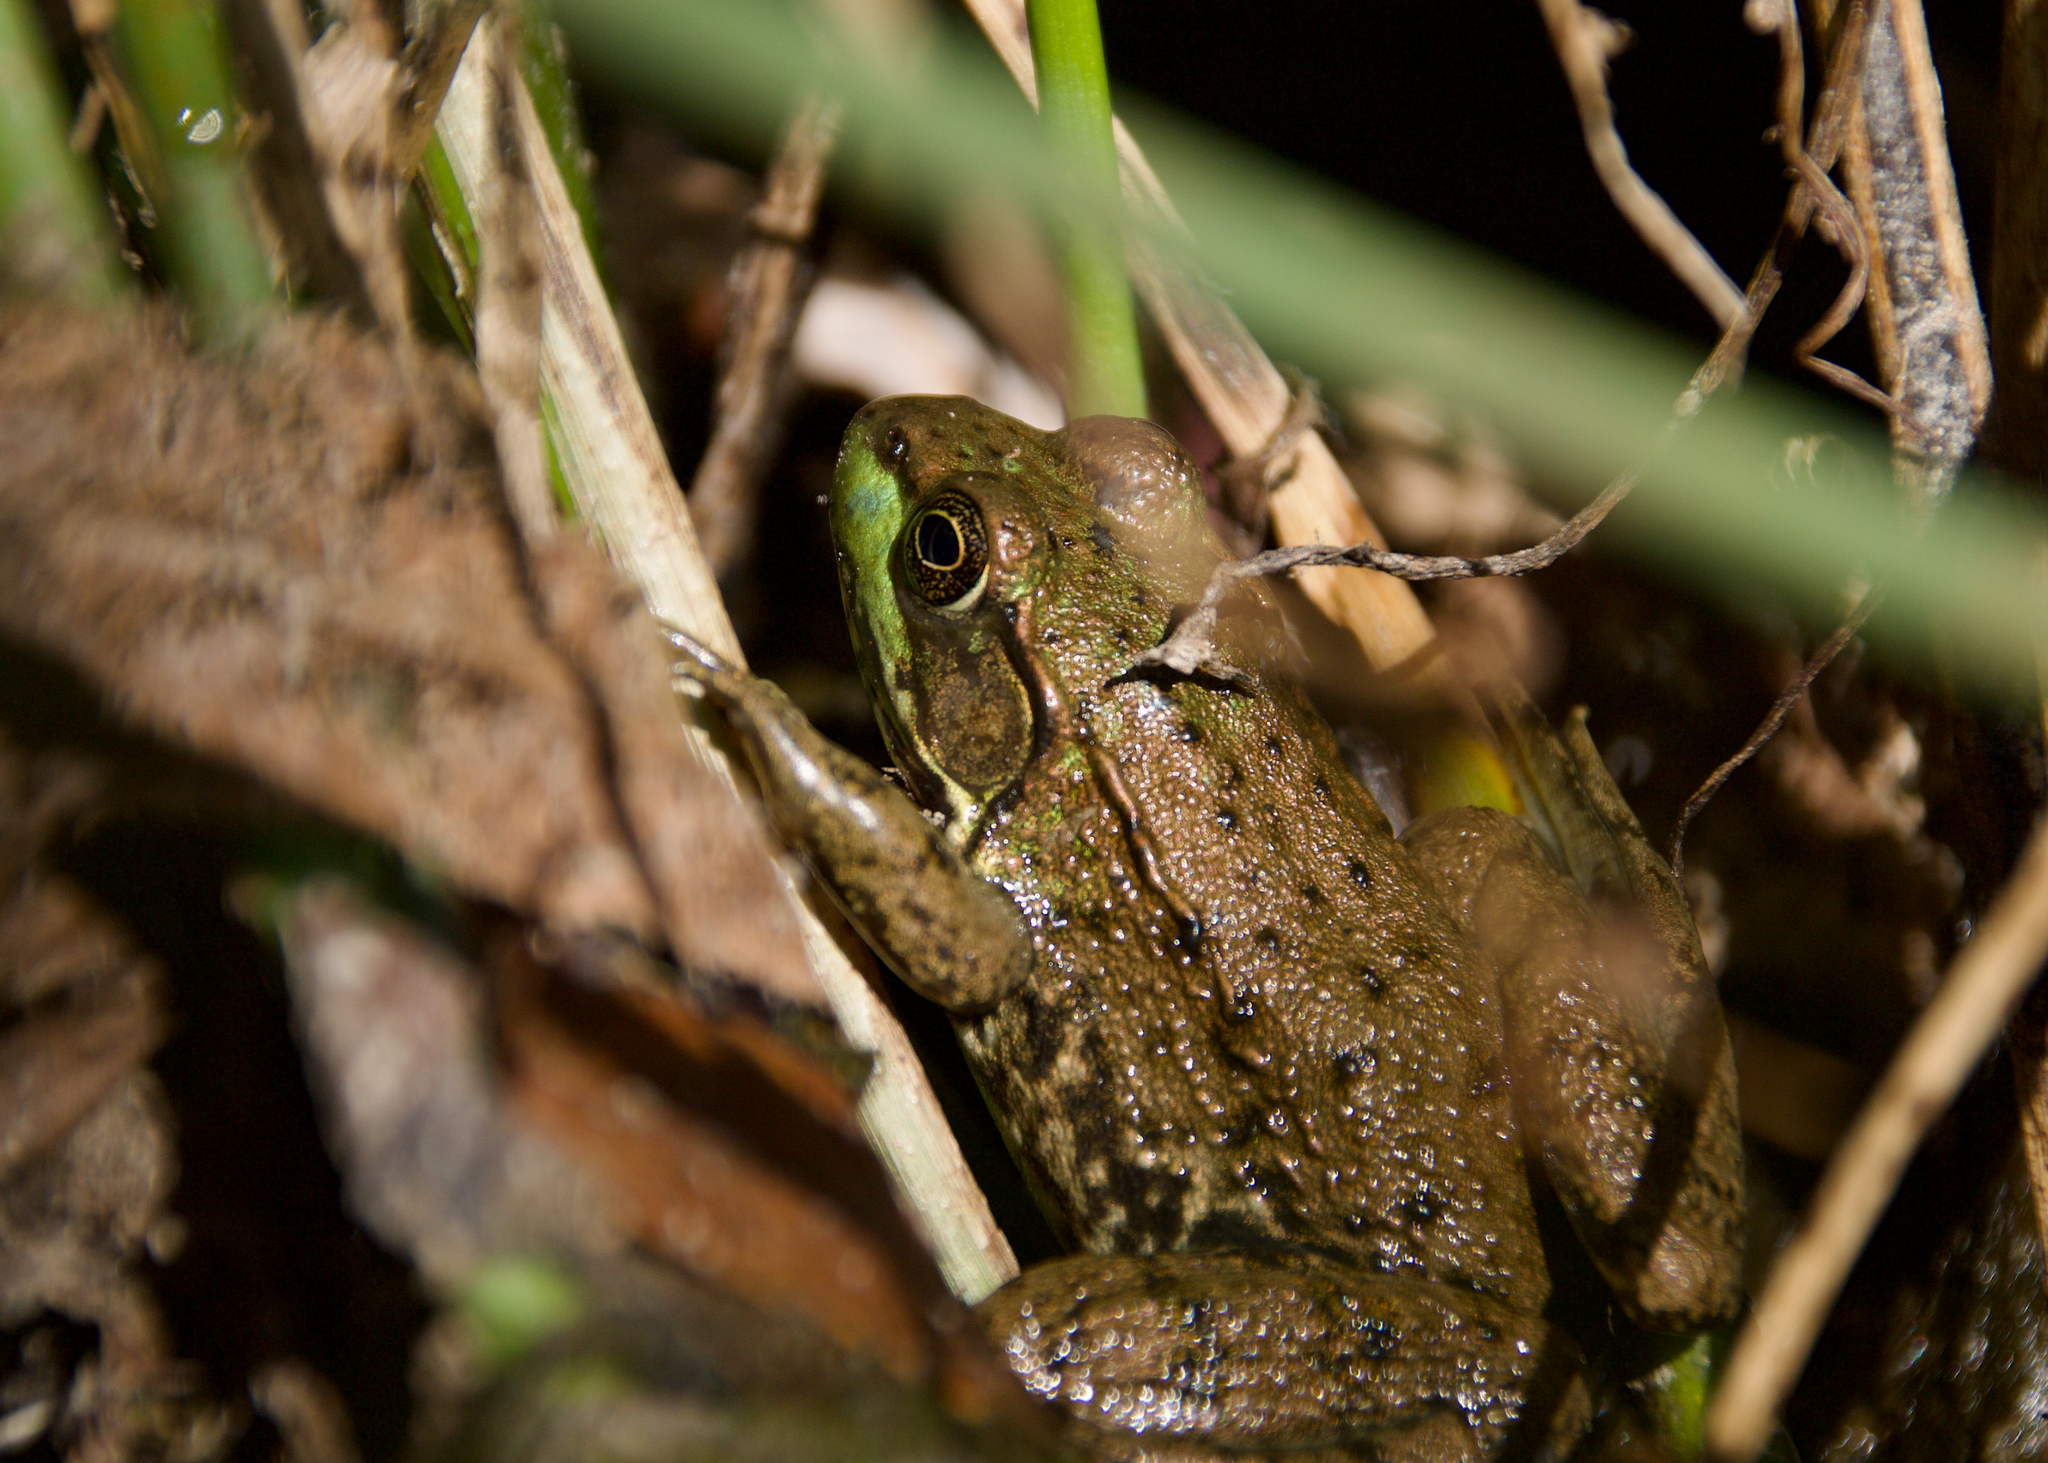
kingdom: Animalia
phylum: Chordata
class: Amphibia
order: Anura
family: Ranidae
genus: Lithobates
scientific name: Lithobates clamitans
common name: Green frog
